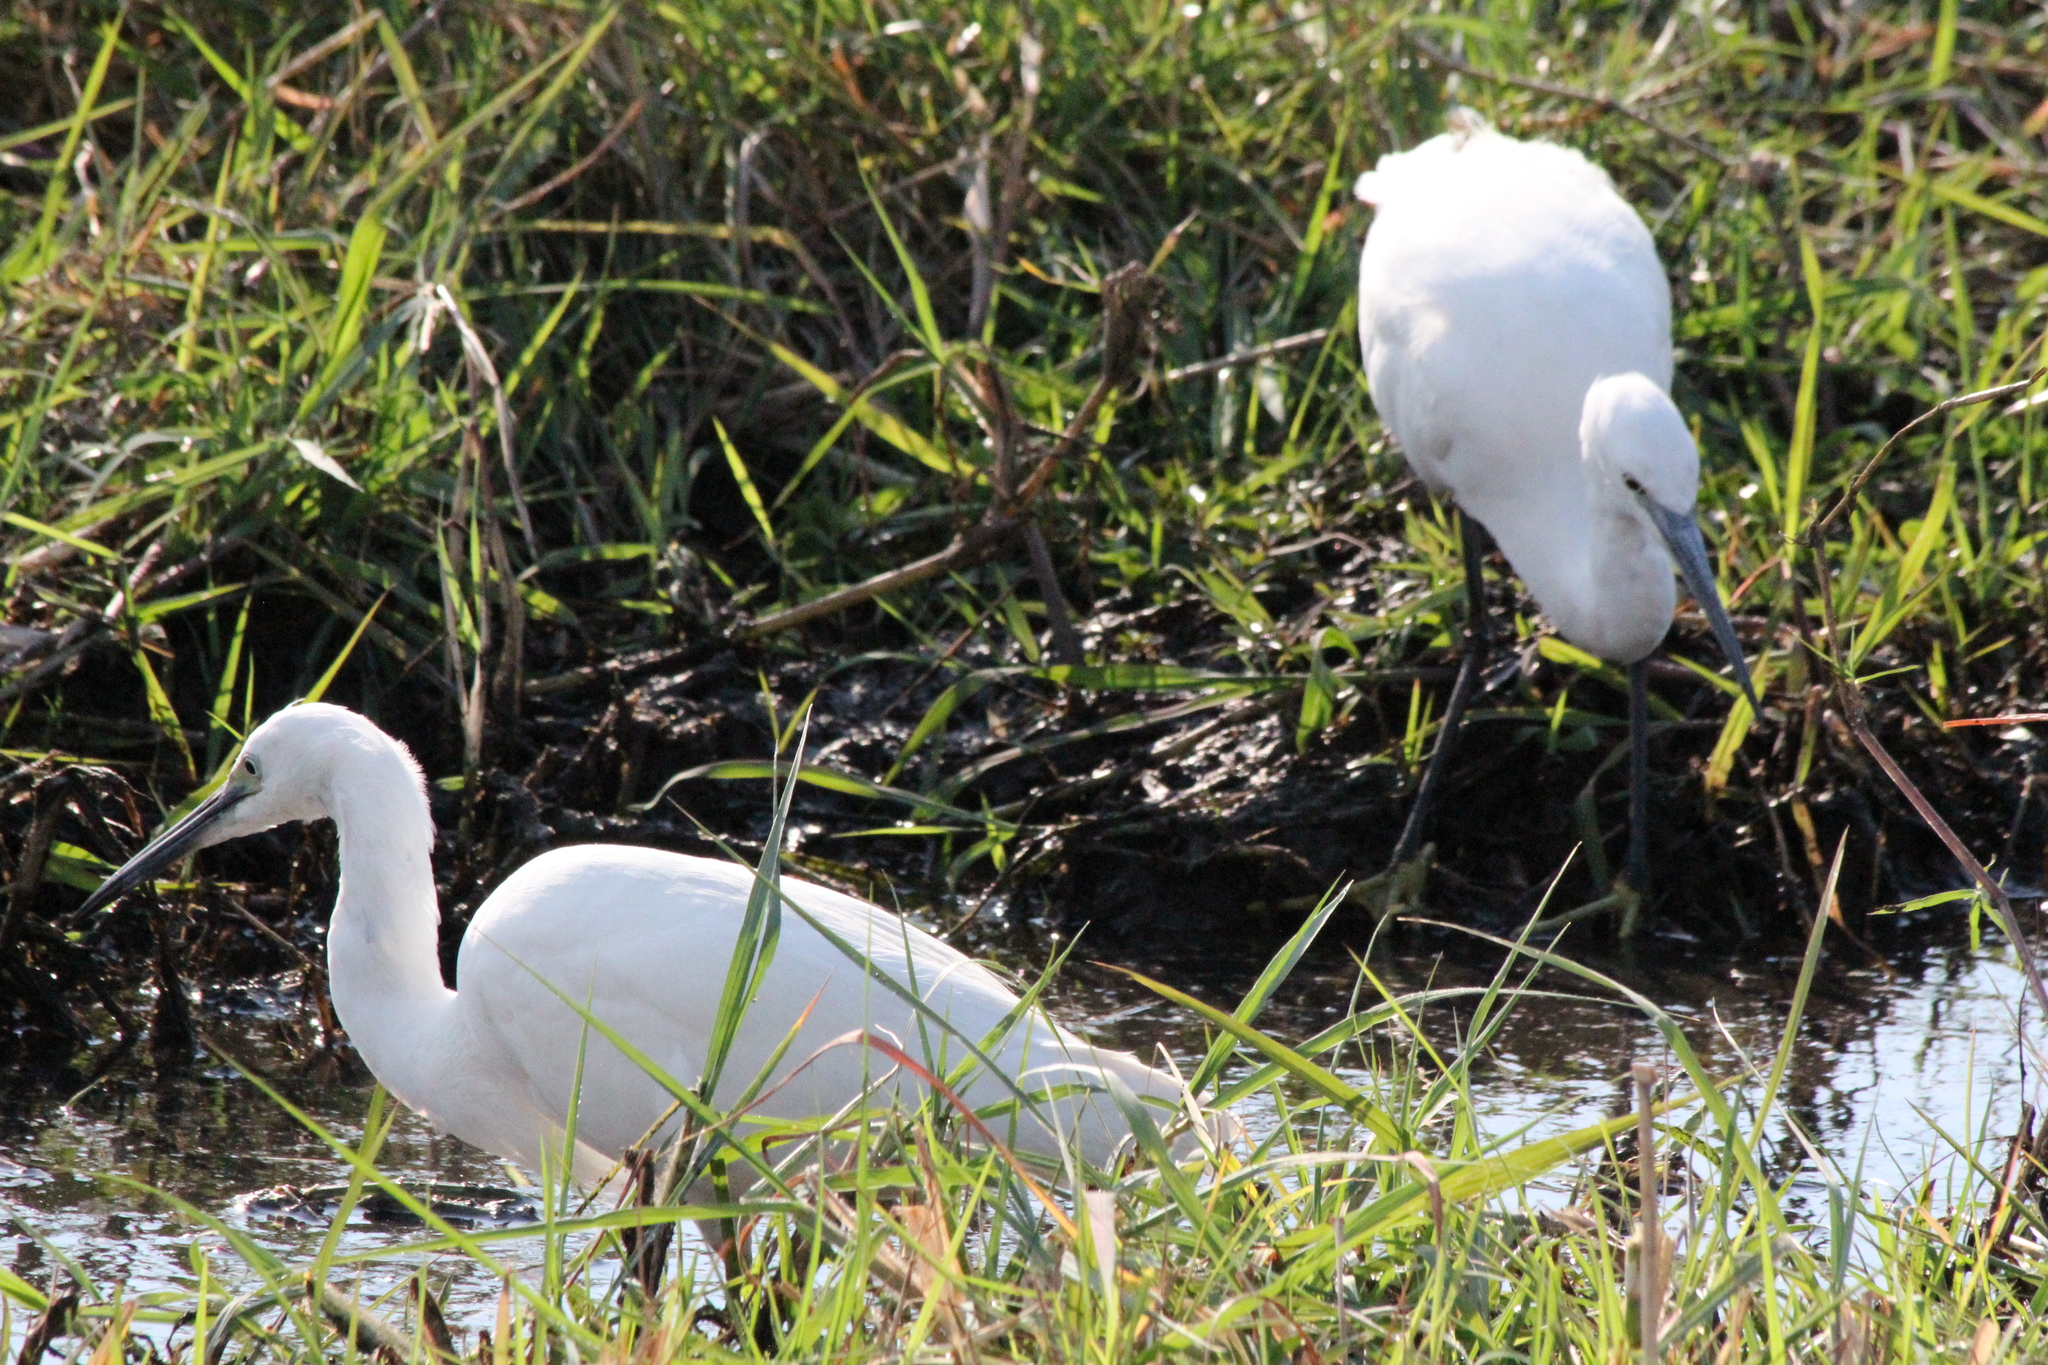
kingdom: Animalia
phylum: Chordata
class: Aves
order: Pelecaniformes
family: Ardeidae
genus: Egretta
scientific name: Egretta garzetta
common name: Little egret
